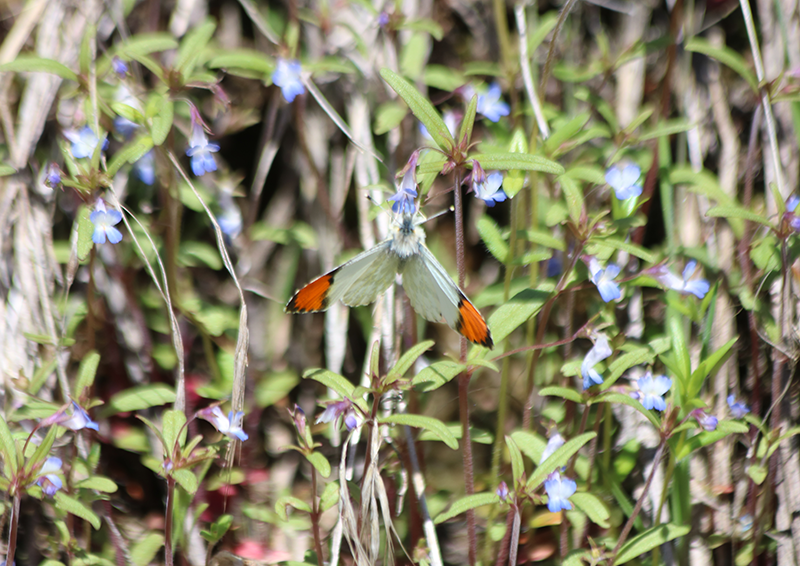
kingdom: Animalia
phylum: Arthropoda
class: Insecta
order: Lepidoptera
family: Pieridae
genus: Anthocharis
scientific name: Anthocharis julia
